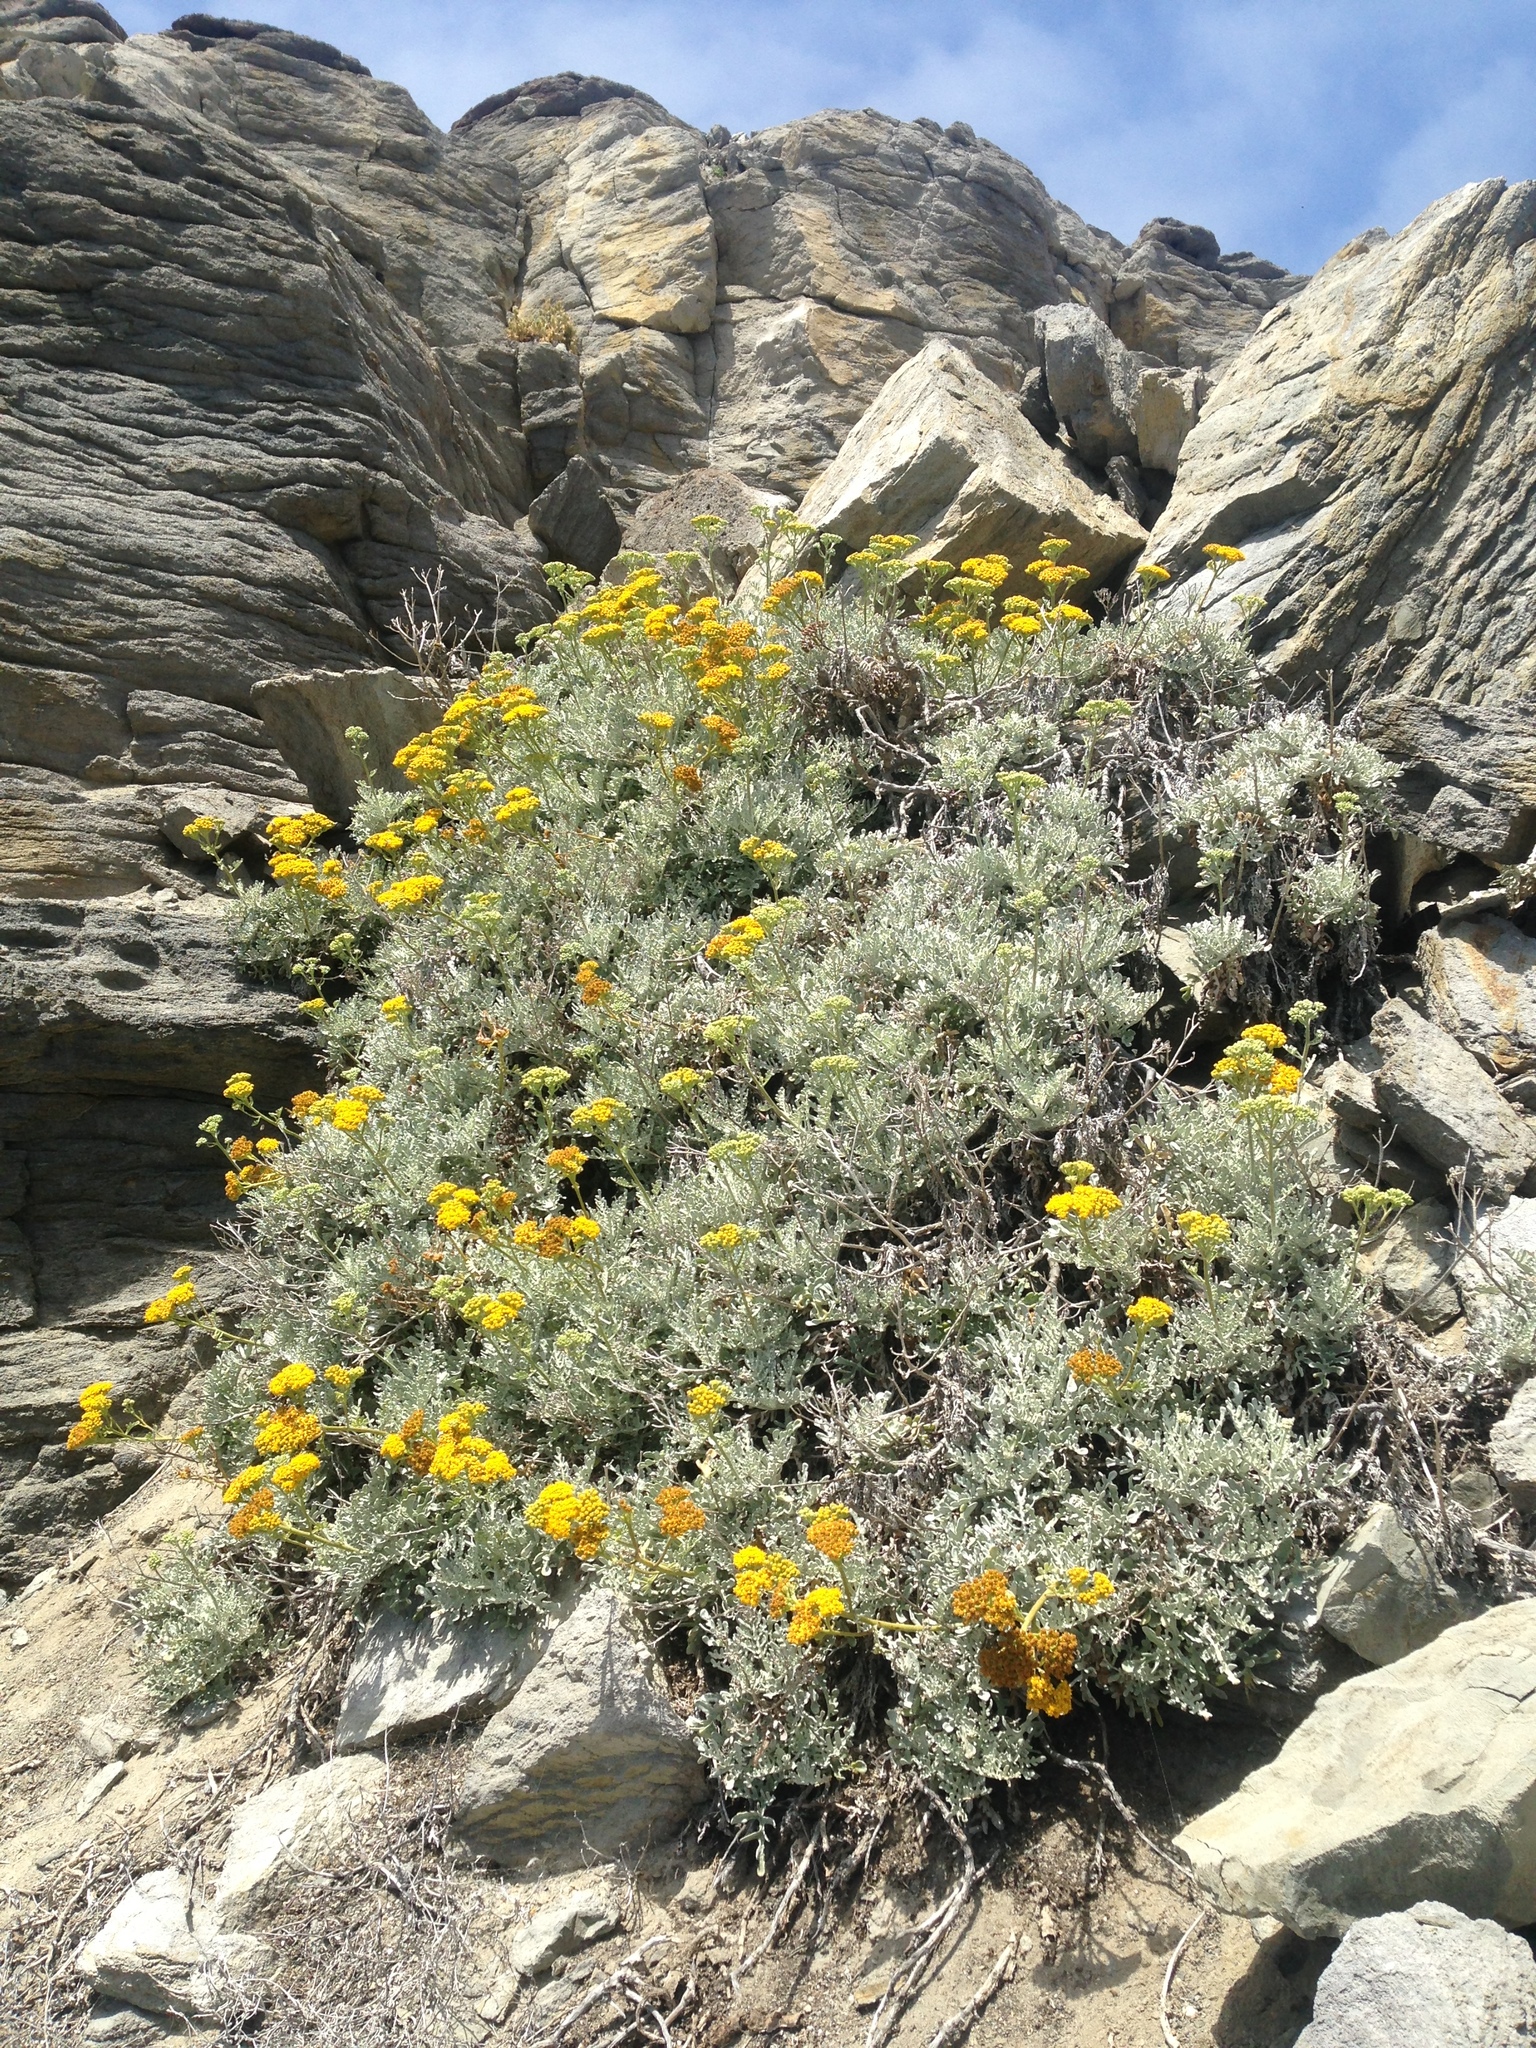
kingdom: Plantae
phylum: Tracheophyta
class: Magnoliopsida
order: Asterales
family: Asteraceae
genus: Constancea
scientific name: Constancea nevinii
